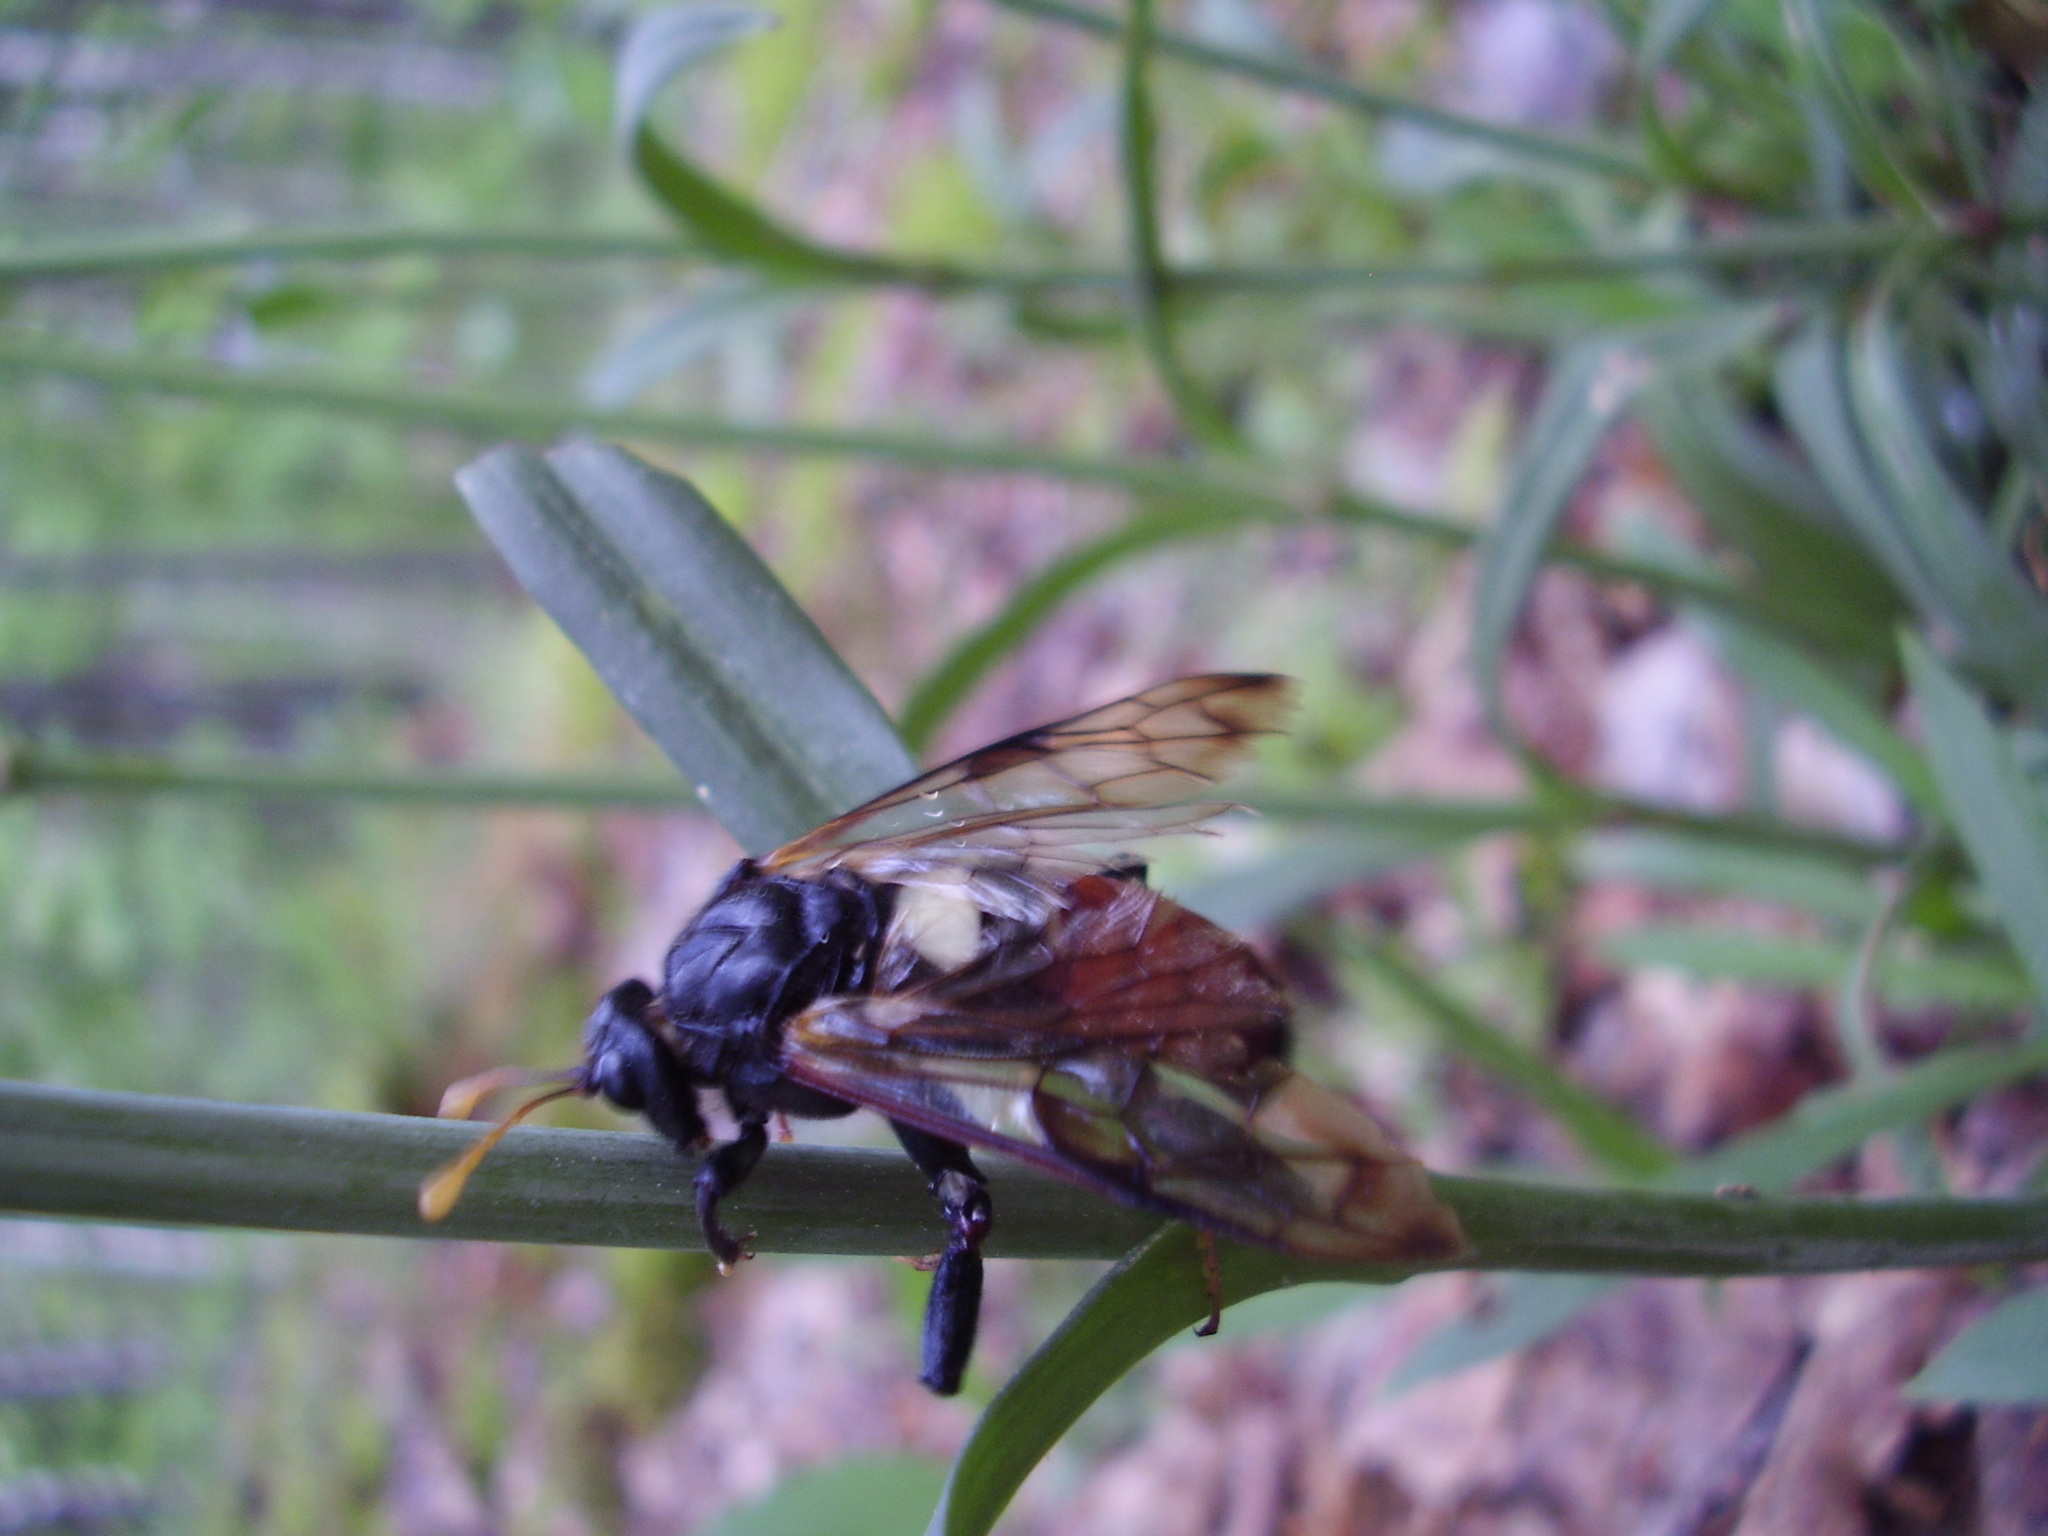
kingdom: Animalia
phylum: Arthropoda
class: Insecta
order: Hymenoptera
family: Cimbicidae
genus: Cimbex
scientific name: Cimbex femoratus
